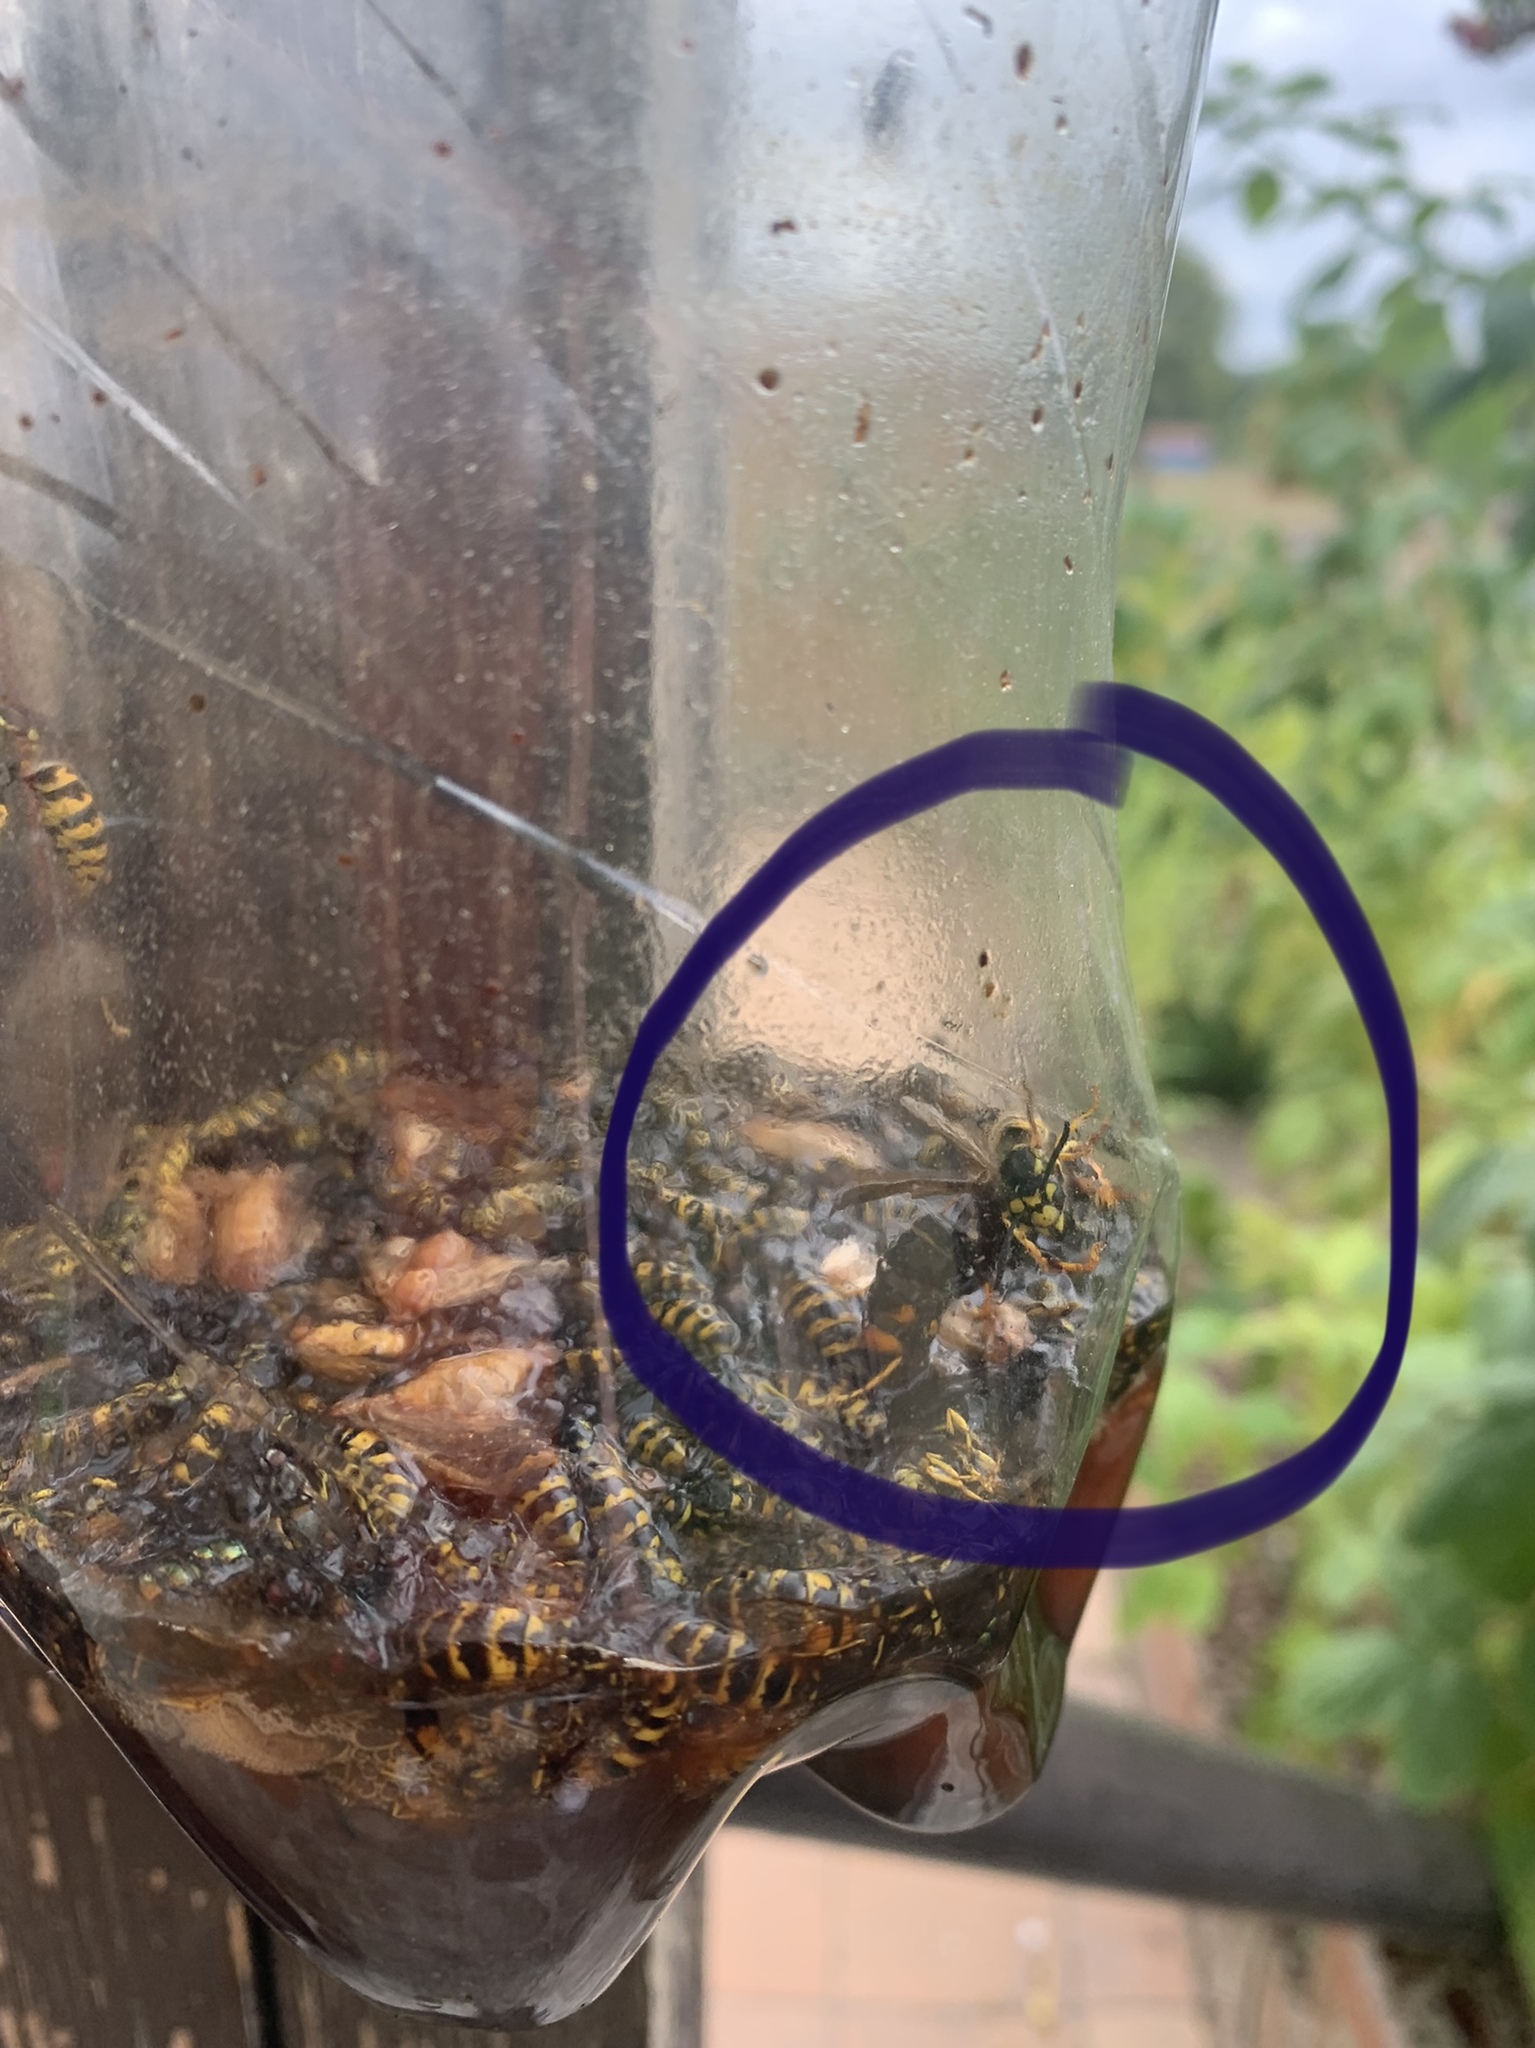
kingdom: Animalia
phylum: Arthropoda
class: Insecta
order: Hymenoptera
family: Vespidae
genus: Vespa
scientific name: Vespa velutina
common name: Asian hornet
